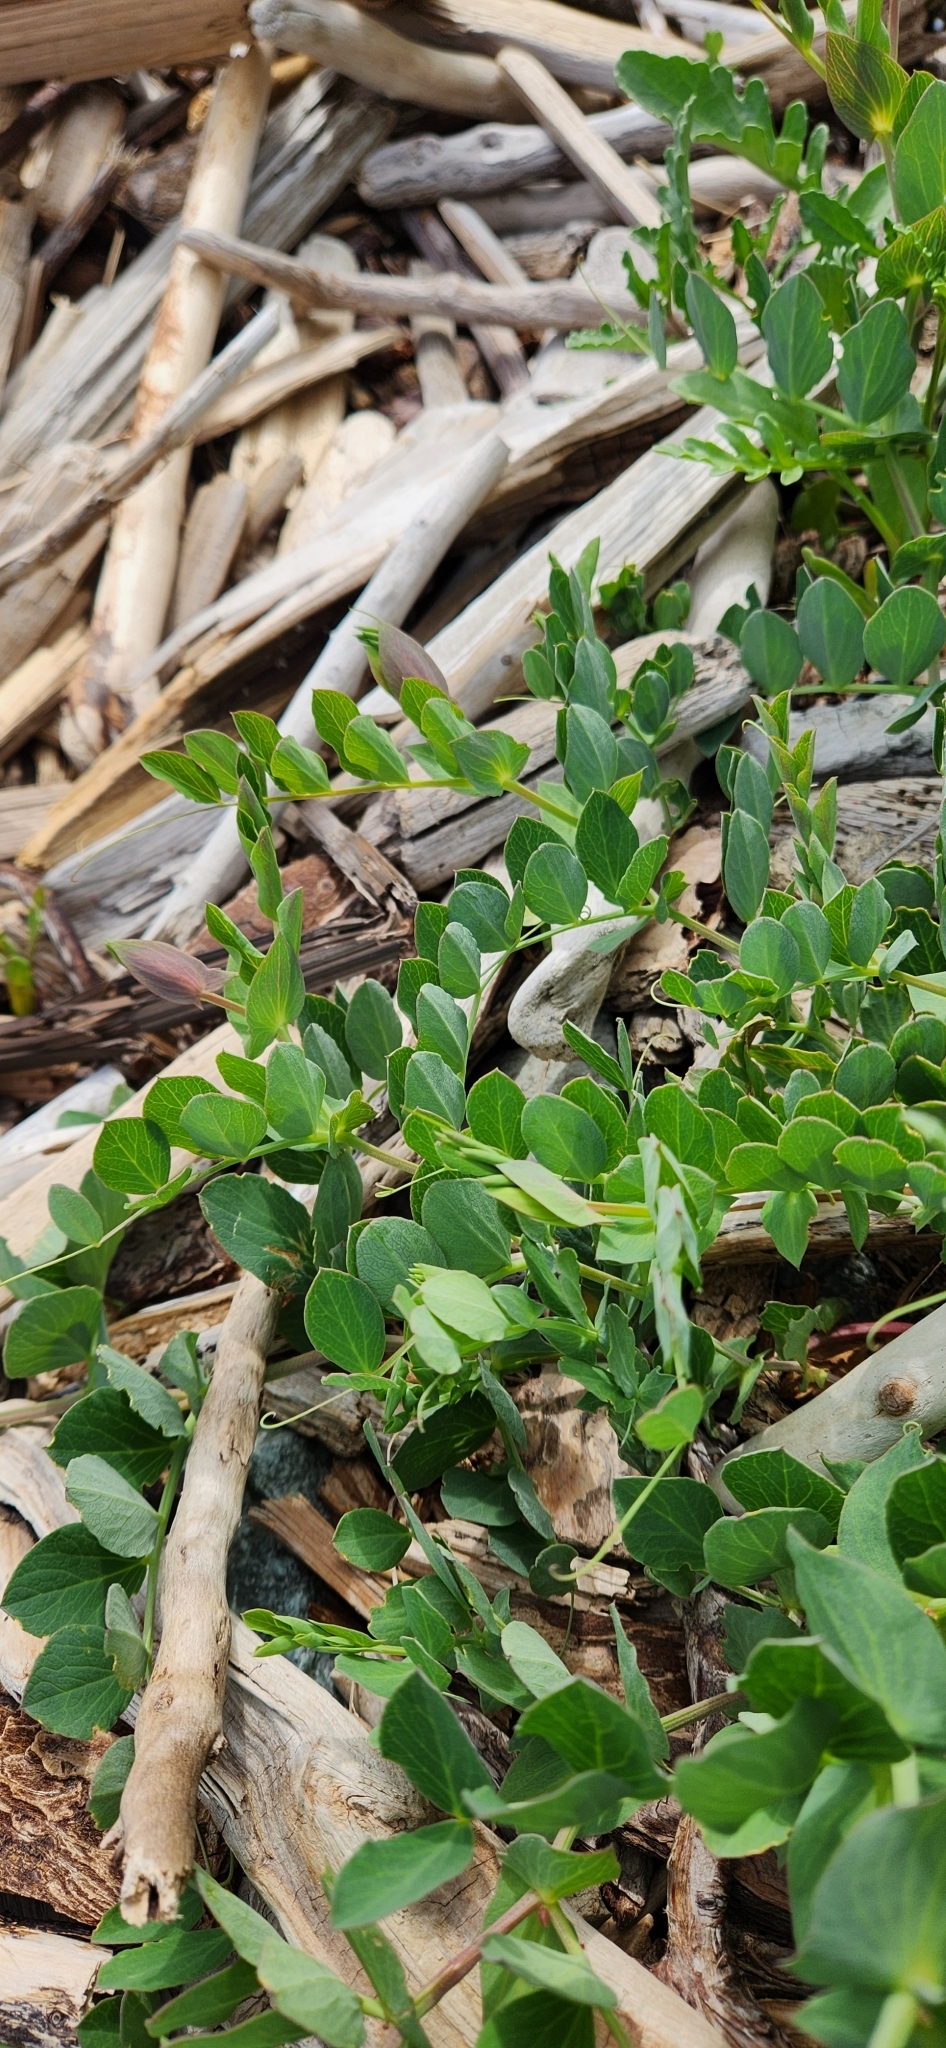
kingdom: Plantae
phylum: Tracheophyta
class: Magnoliopsida
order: Fabales
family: Fabaceae
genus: Lathyrus
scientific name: Lathyrus japonicus
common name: Sea pea
